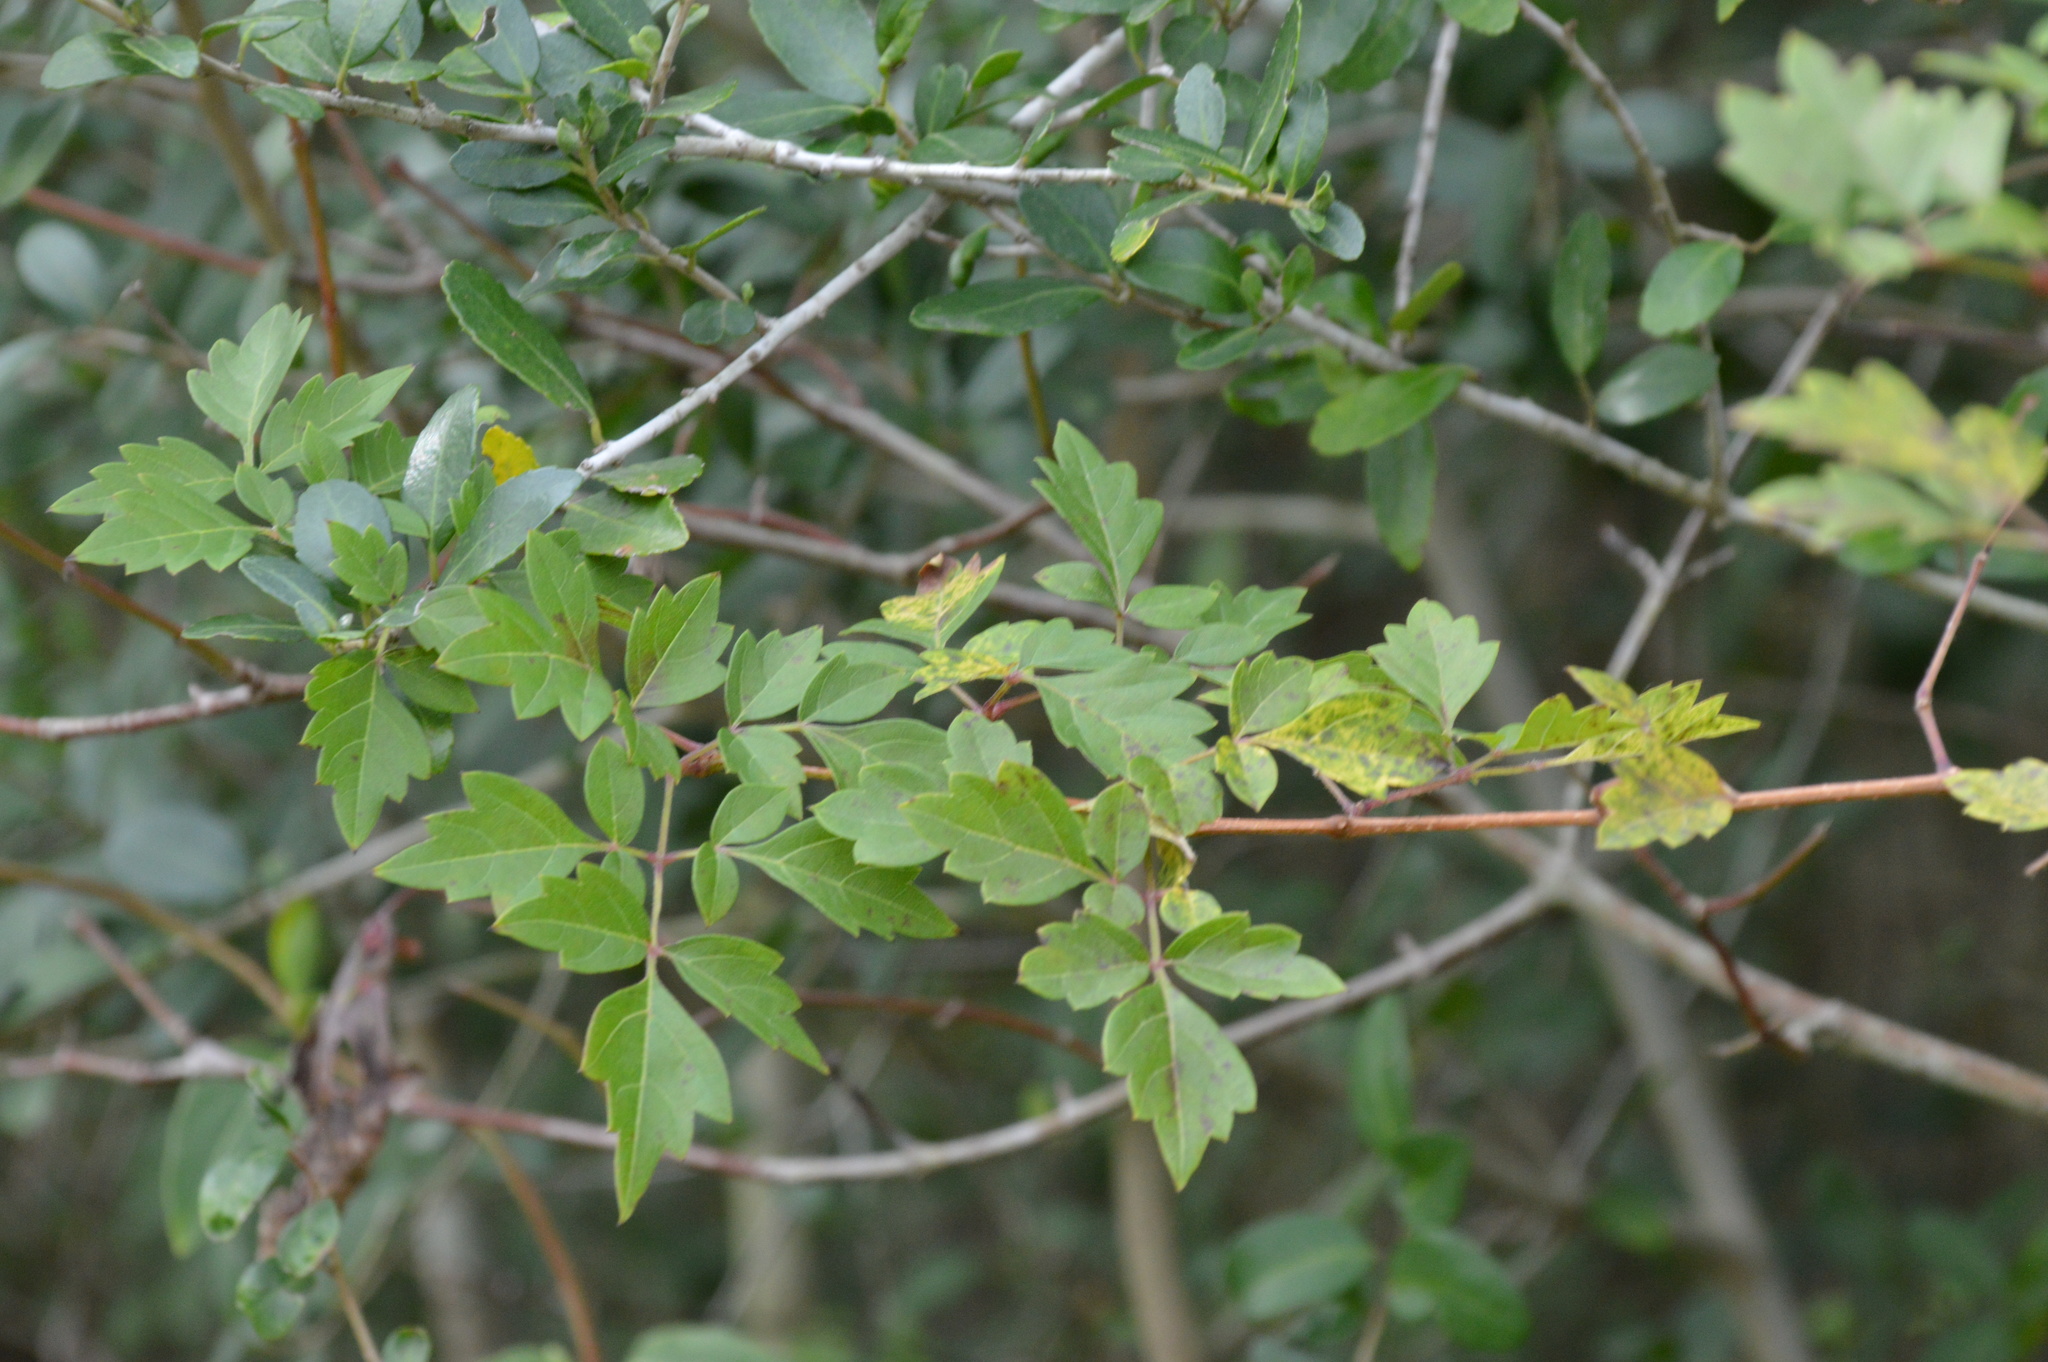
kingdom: Plantae
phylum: Tracheophyta
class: Magnoliopsida
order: Vitales
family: Vitaceae
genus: Nekemias
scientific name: Nekemias arborea
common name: Peppervine
